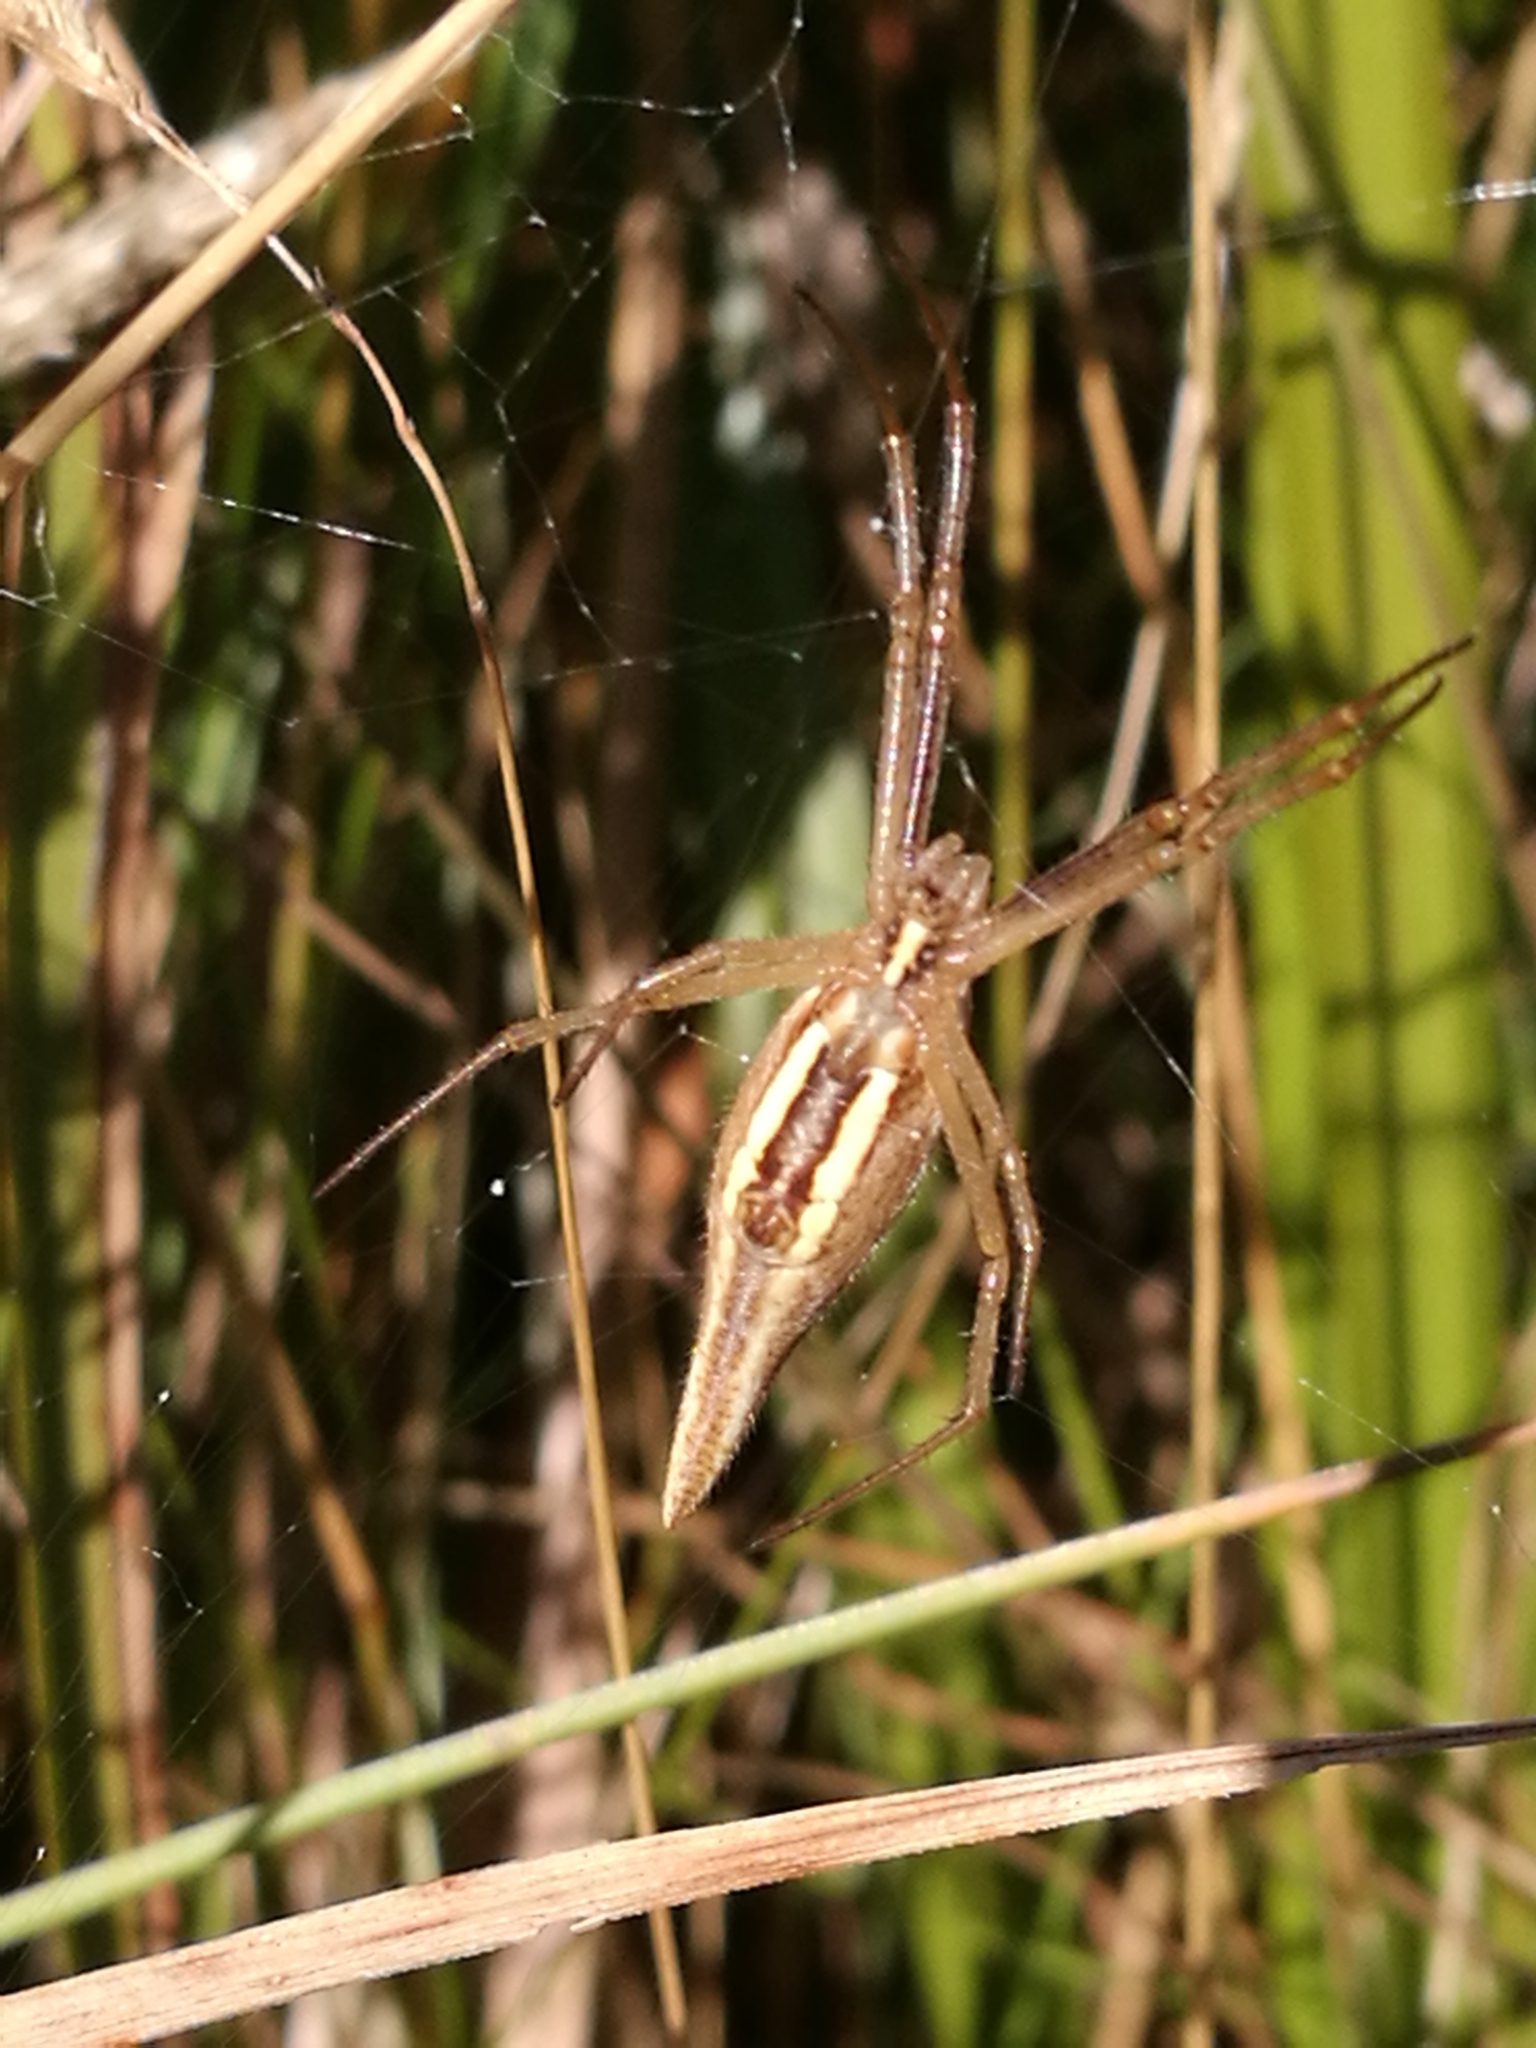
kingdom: Animalia
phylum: Arthropoda
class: Arachnida
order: Araneae
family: Araneidae
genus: Argiope
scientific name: Argiope protensa
